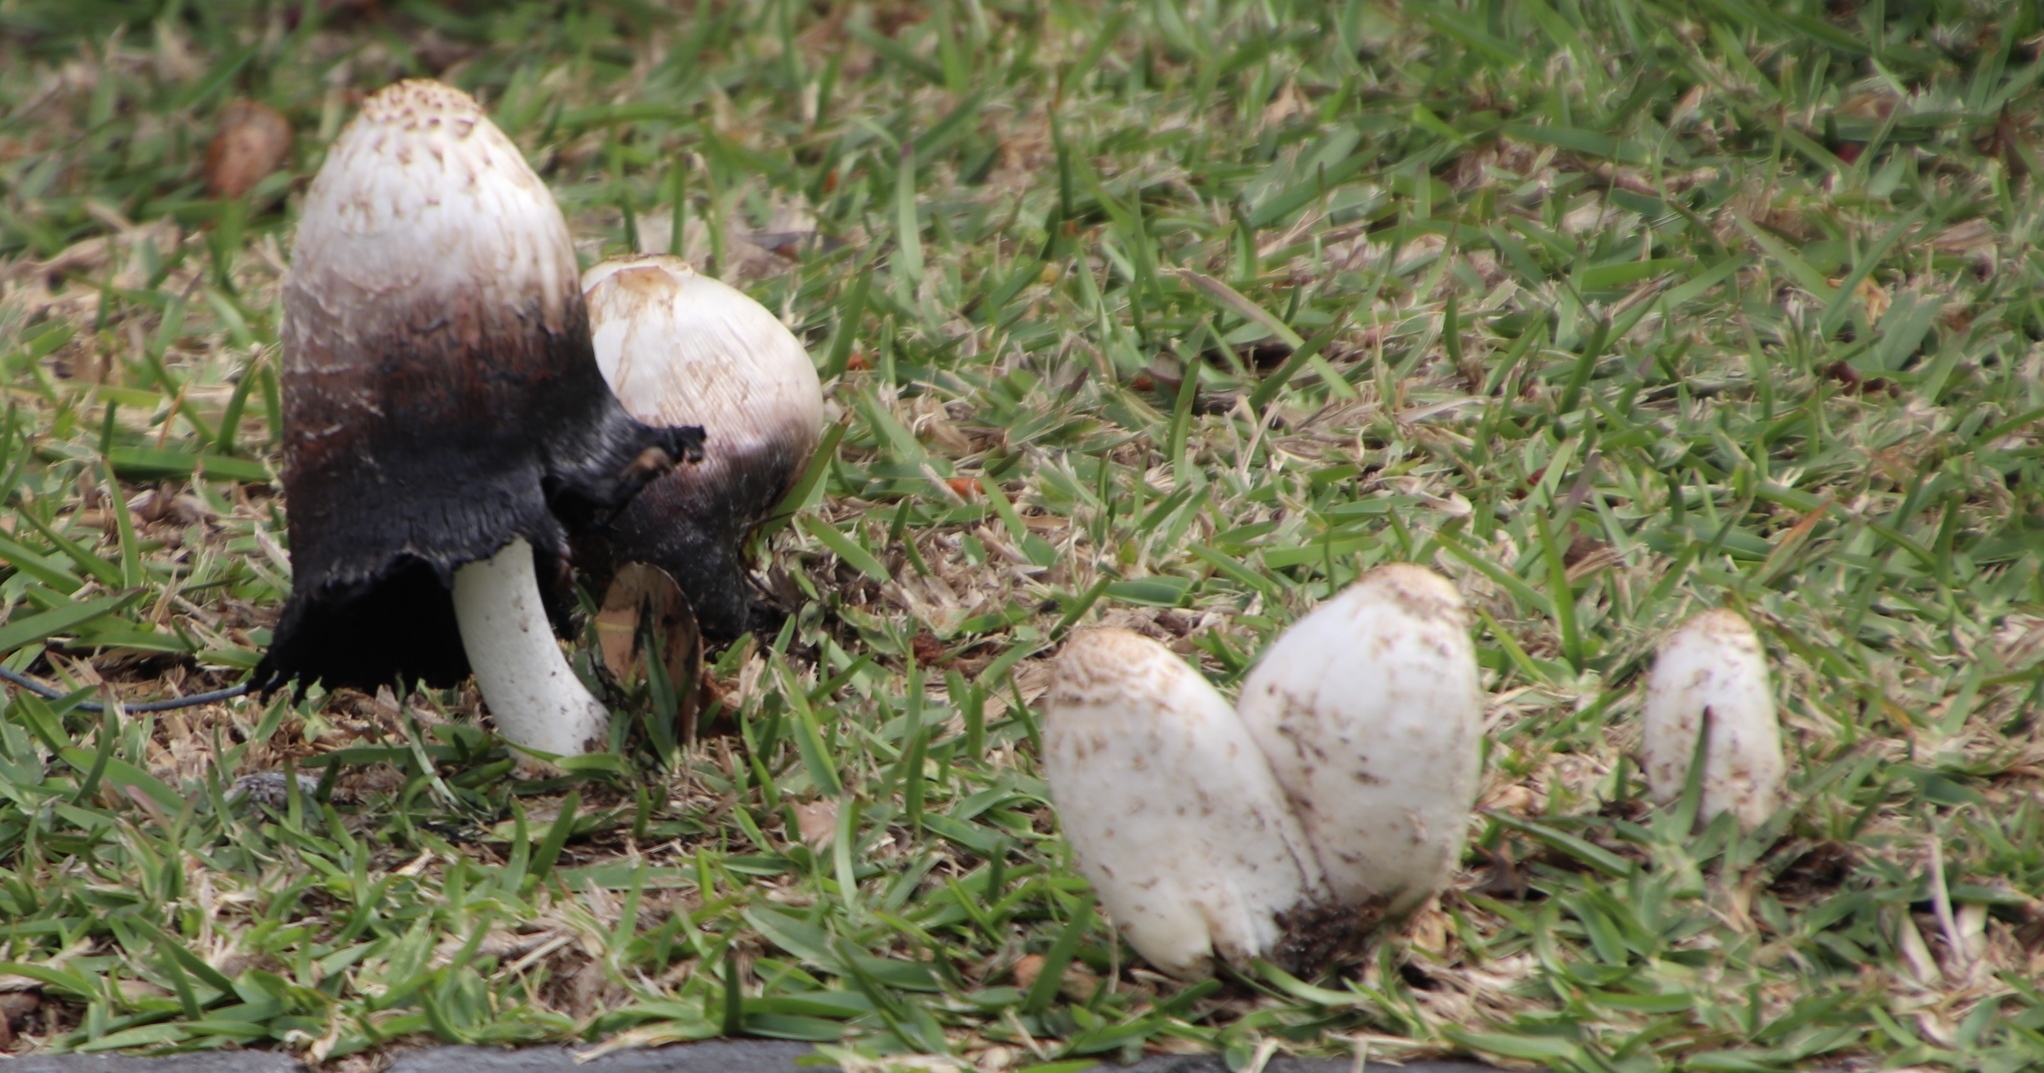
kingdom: Fungi
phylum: Basidiomycota
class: Agaricomycetes
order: Agaricales
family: Agaricaceae
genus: Coprinus
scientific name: Coprinus comatus
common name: Lawyer's wig
